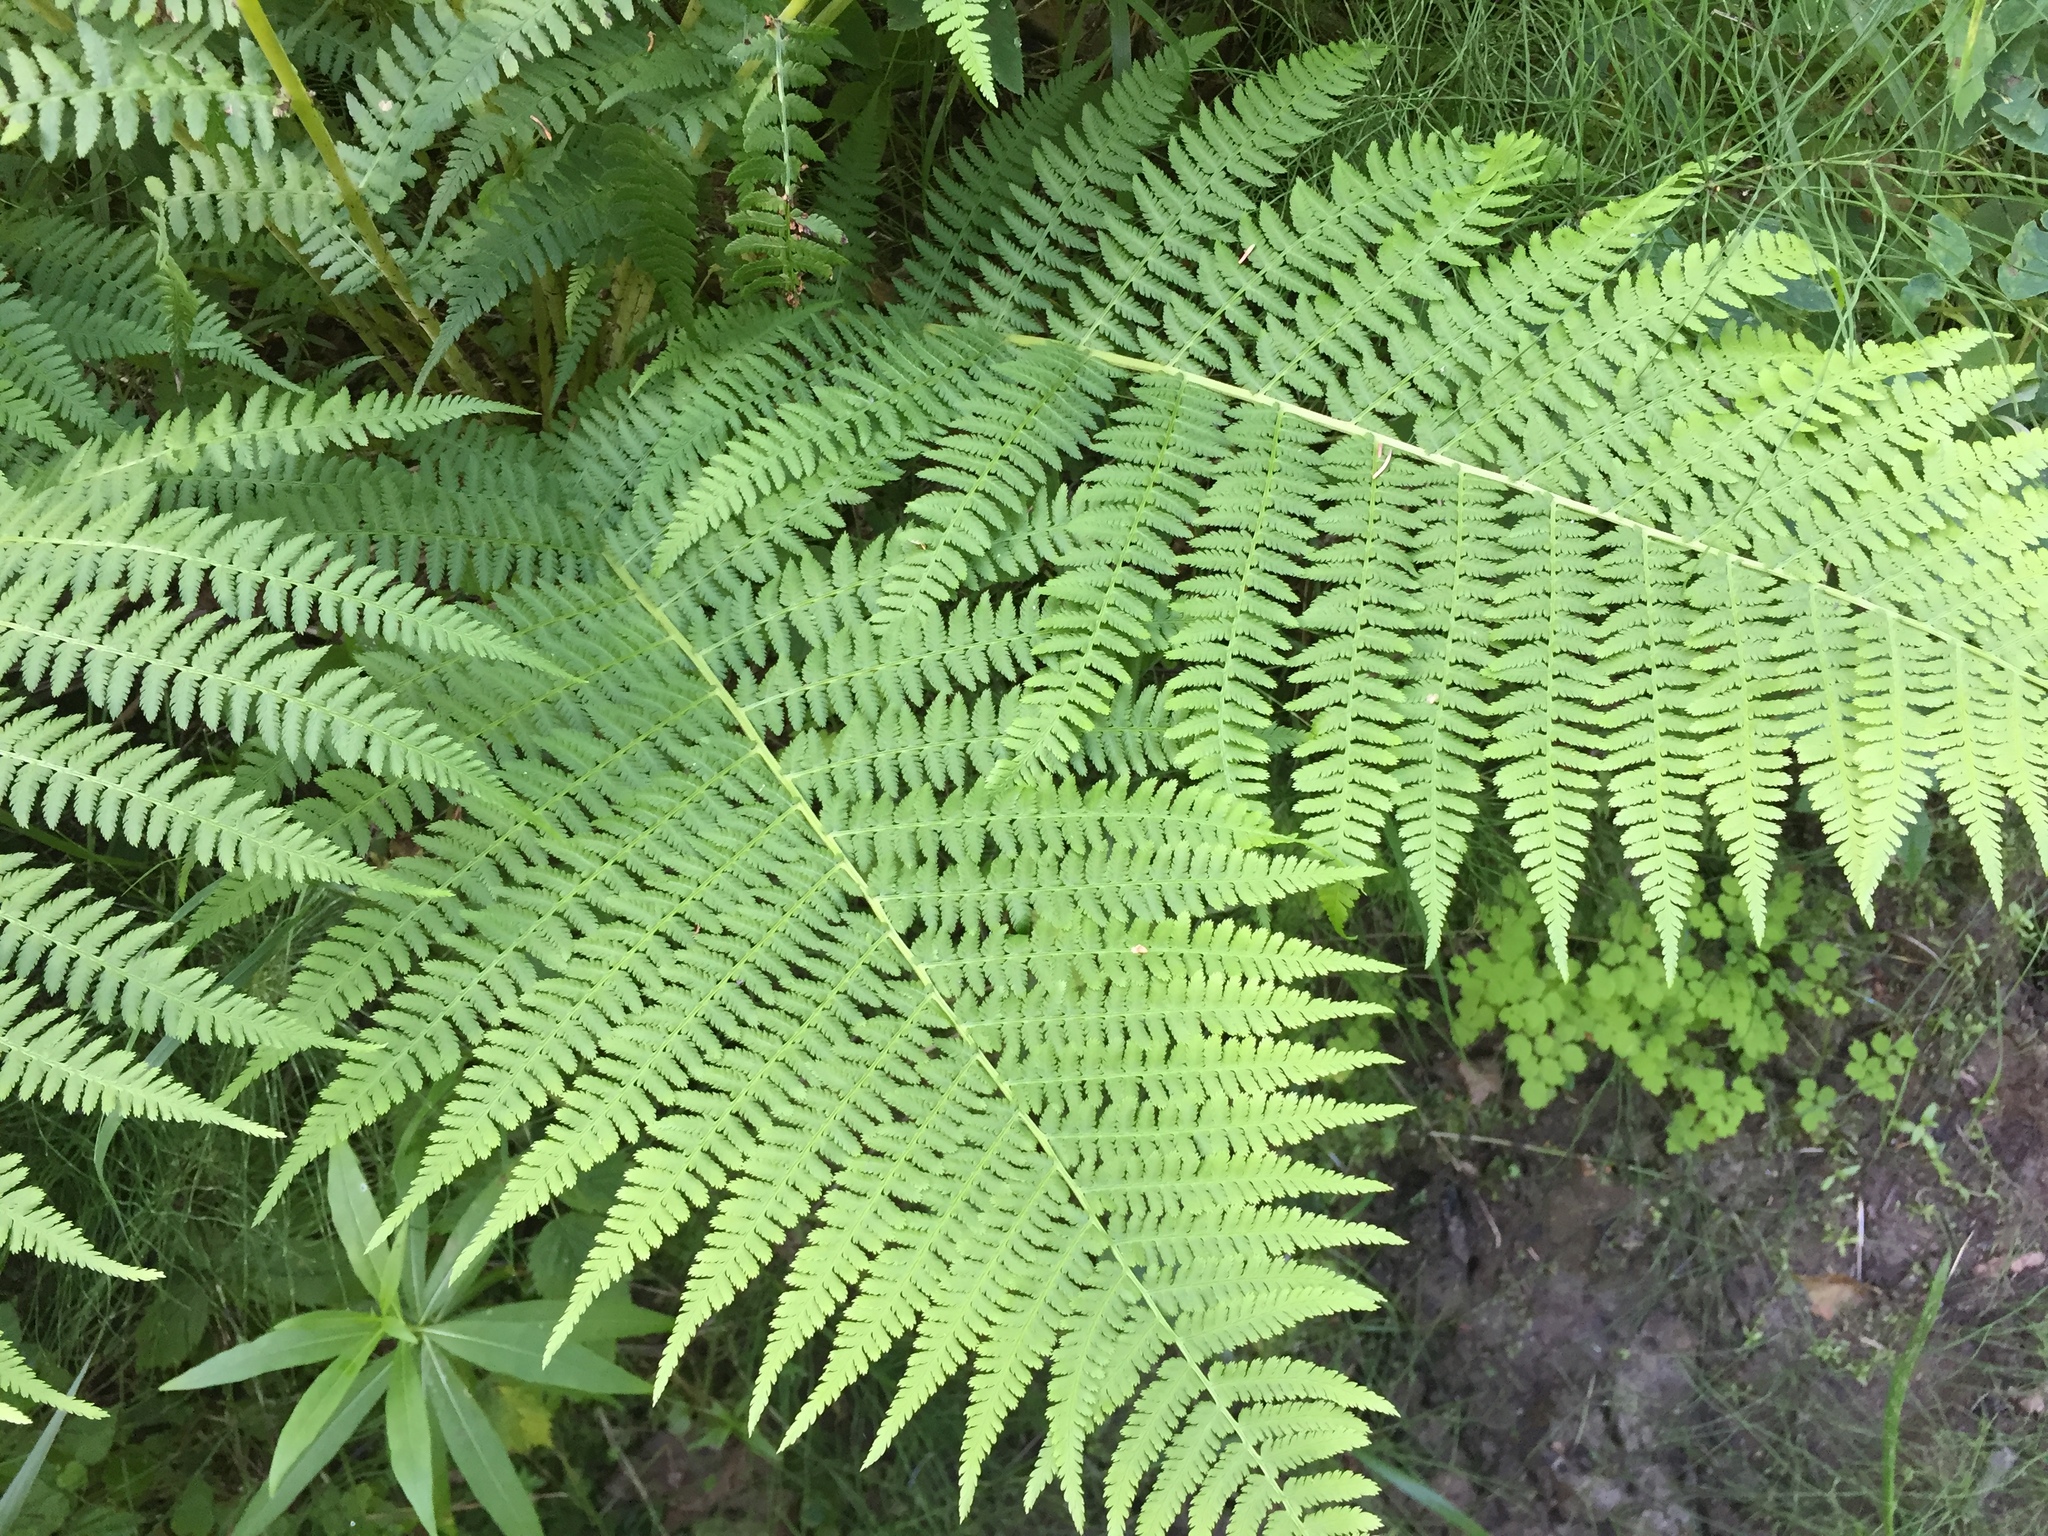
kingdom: Plantae
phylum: Tracheophyta
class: Polypodiopsida
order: Polypodiales
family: Athyriaceae
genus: Athyrium
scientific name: Athyrium filix-femina
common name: Lady fern
